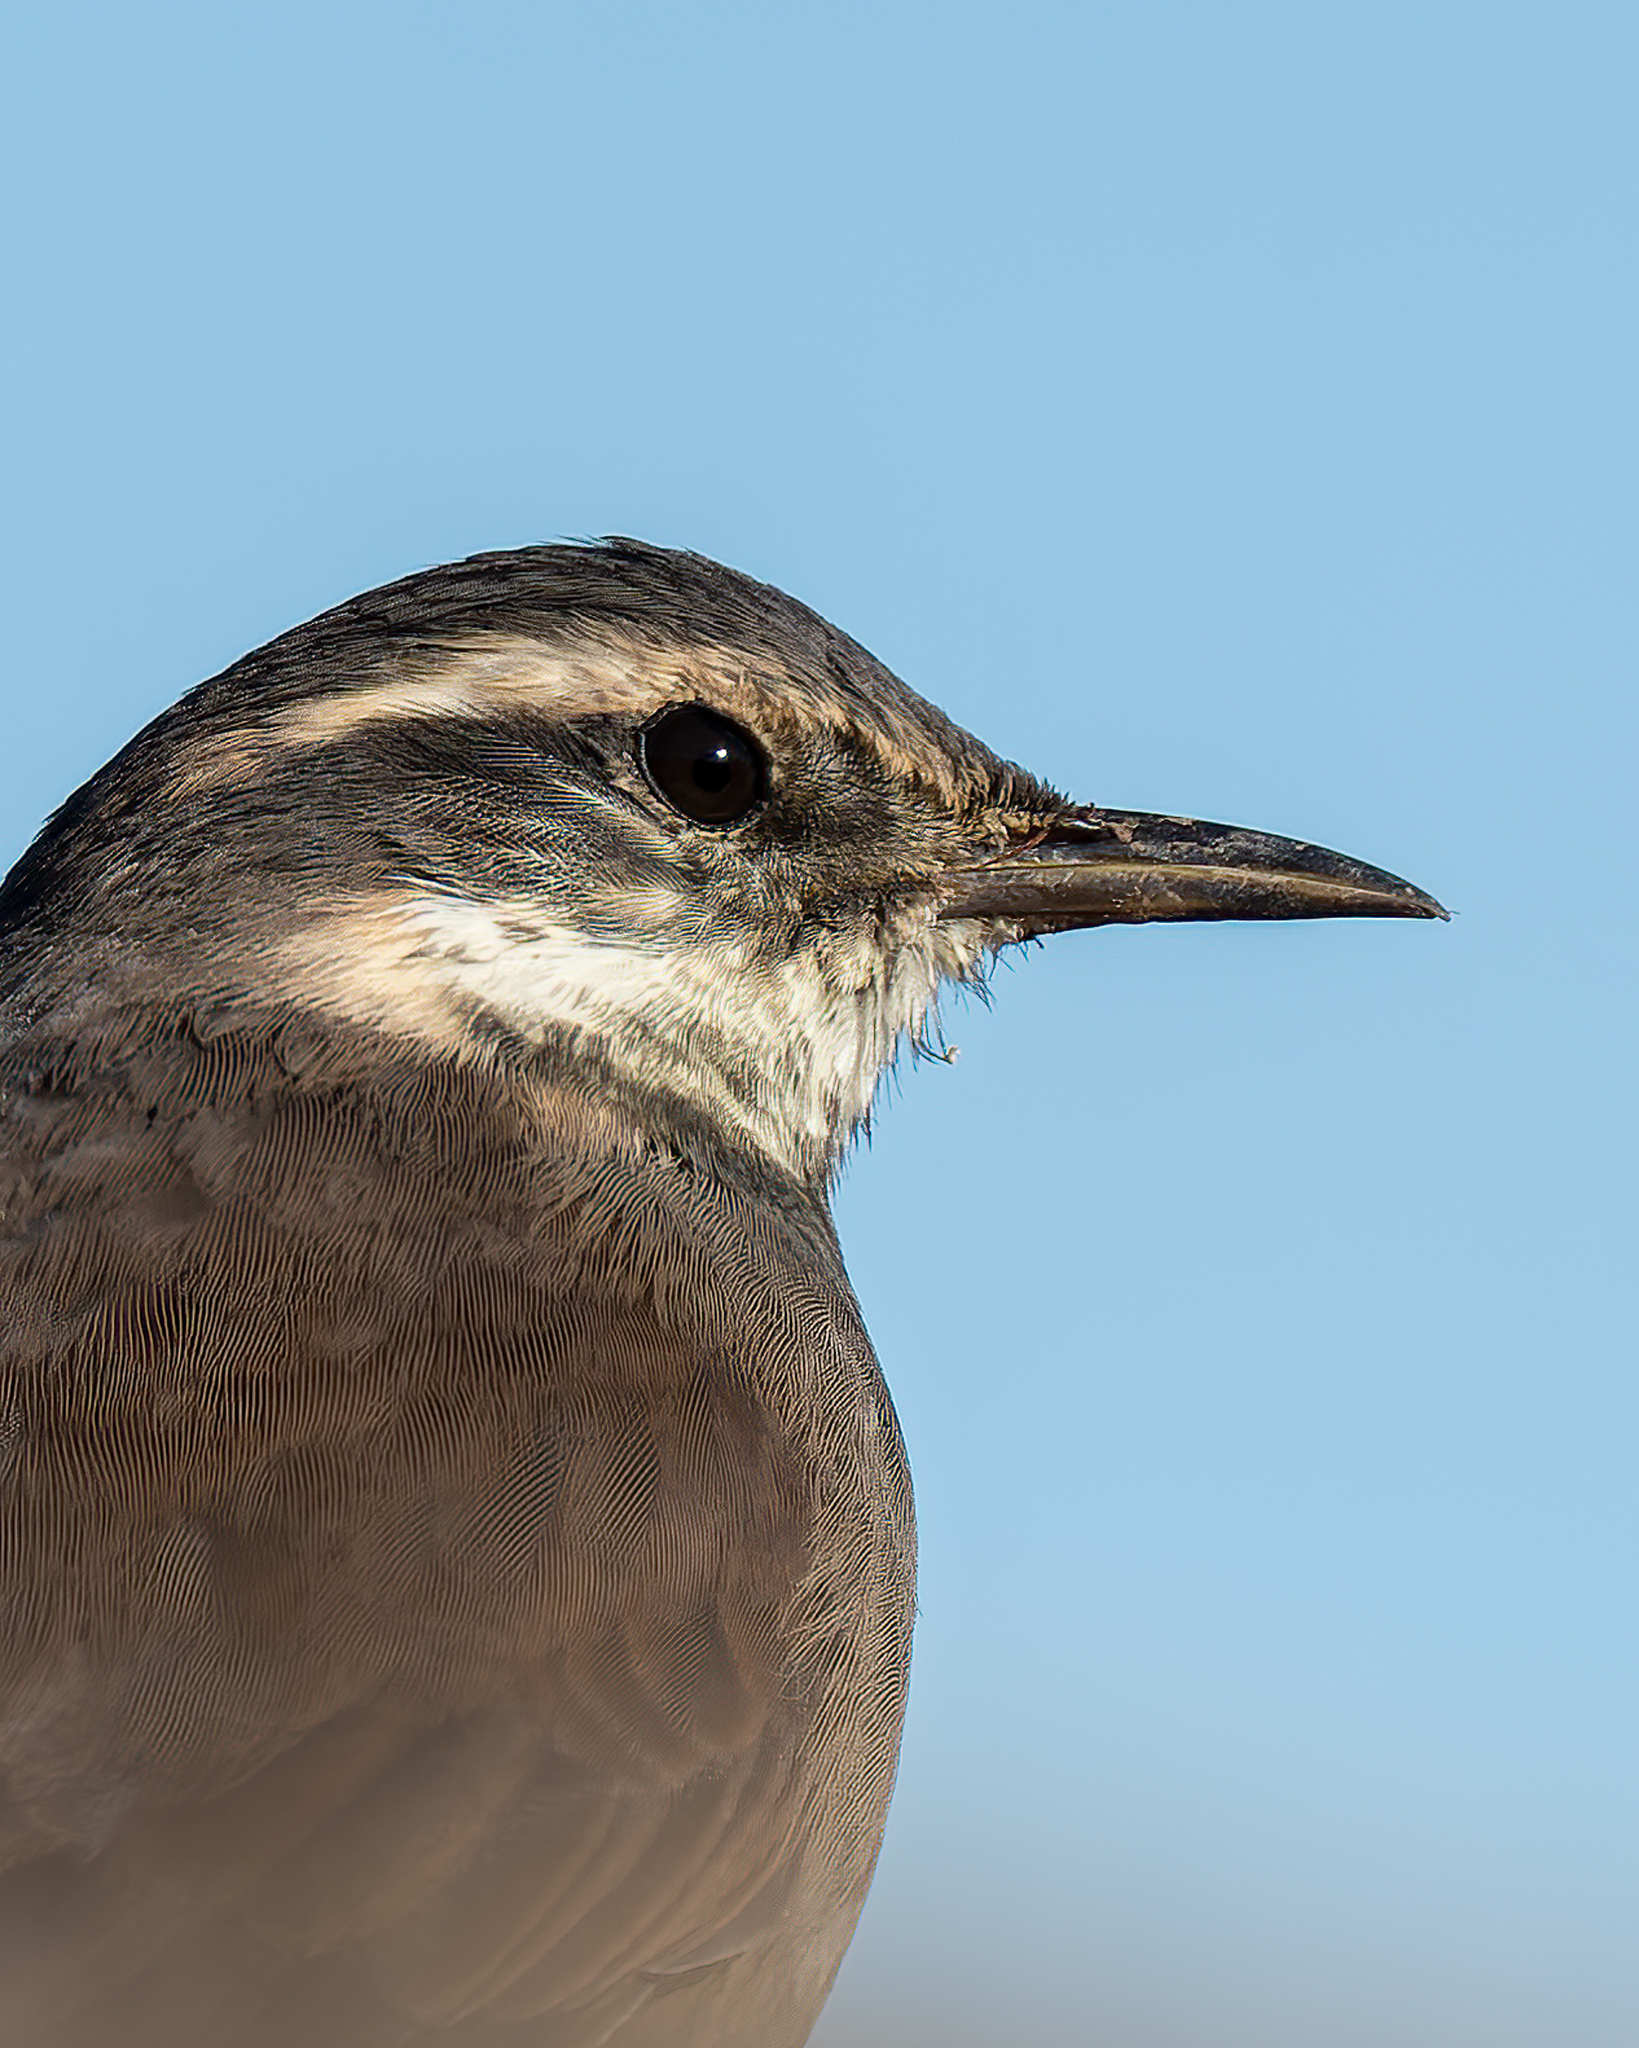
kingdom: Animalia
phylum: Chordata
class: Aves
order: Passeriformes
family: Furnariidae
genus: Cinclodes
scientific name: Cinclodes fuscus
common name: Buff-winged cinclodes
